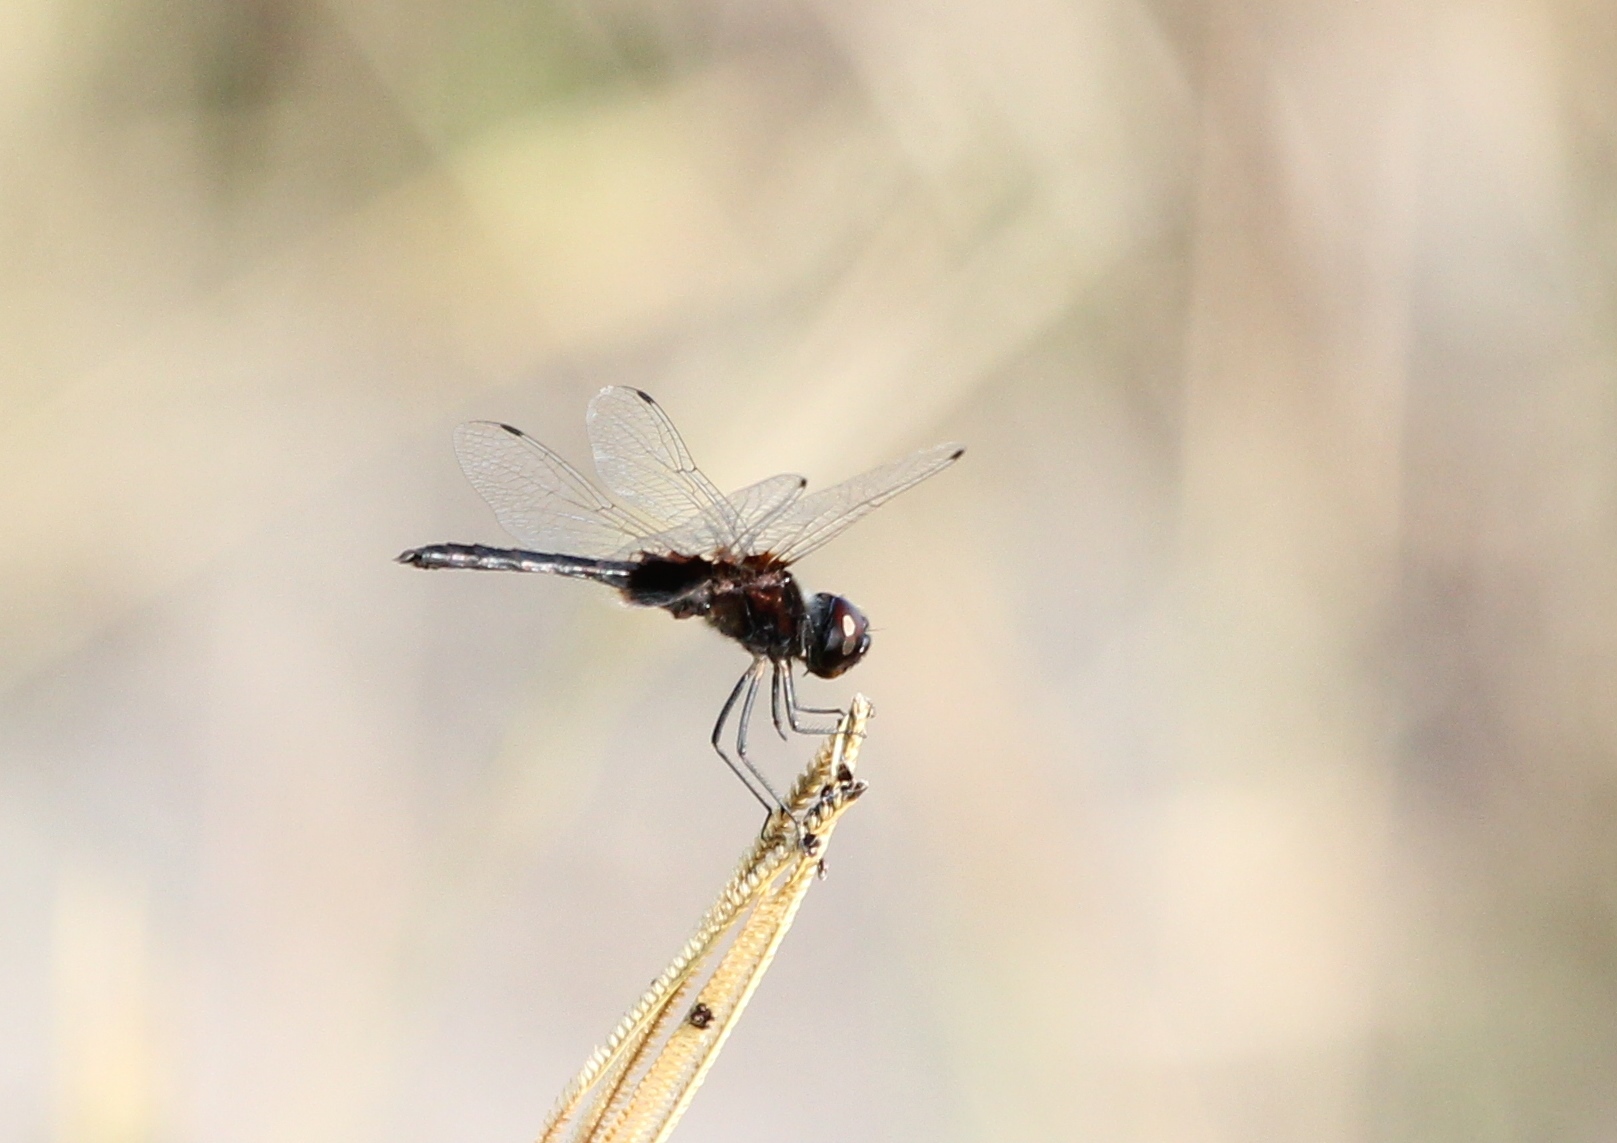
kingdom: Animalia
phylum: Arthropoda
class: Insecta
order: Odonata
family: Libellulidae
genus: Macrodiplax
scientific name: Macrodiplax balteata
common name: Marl pennant
